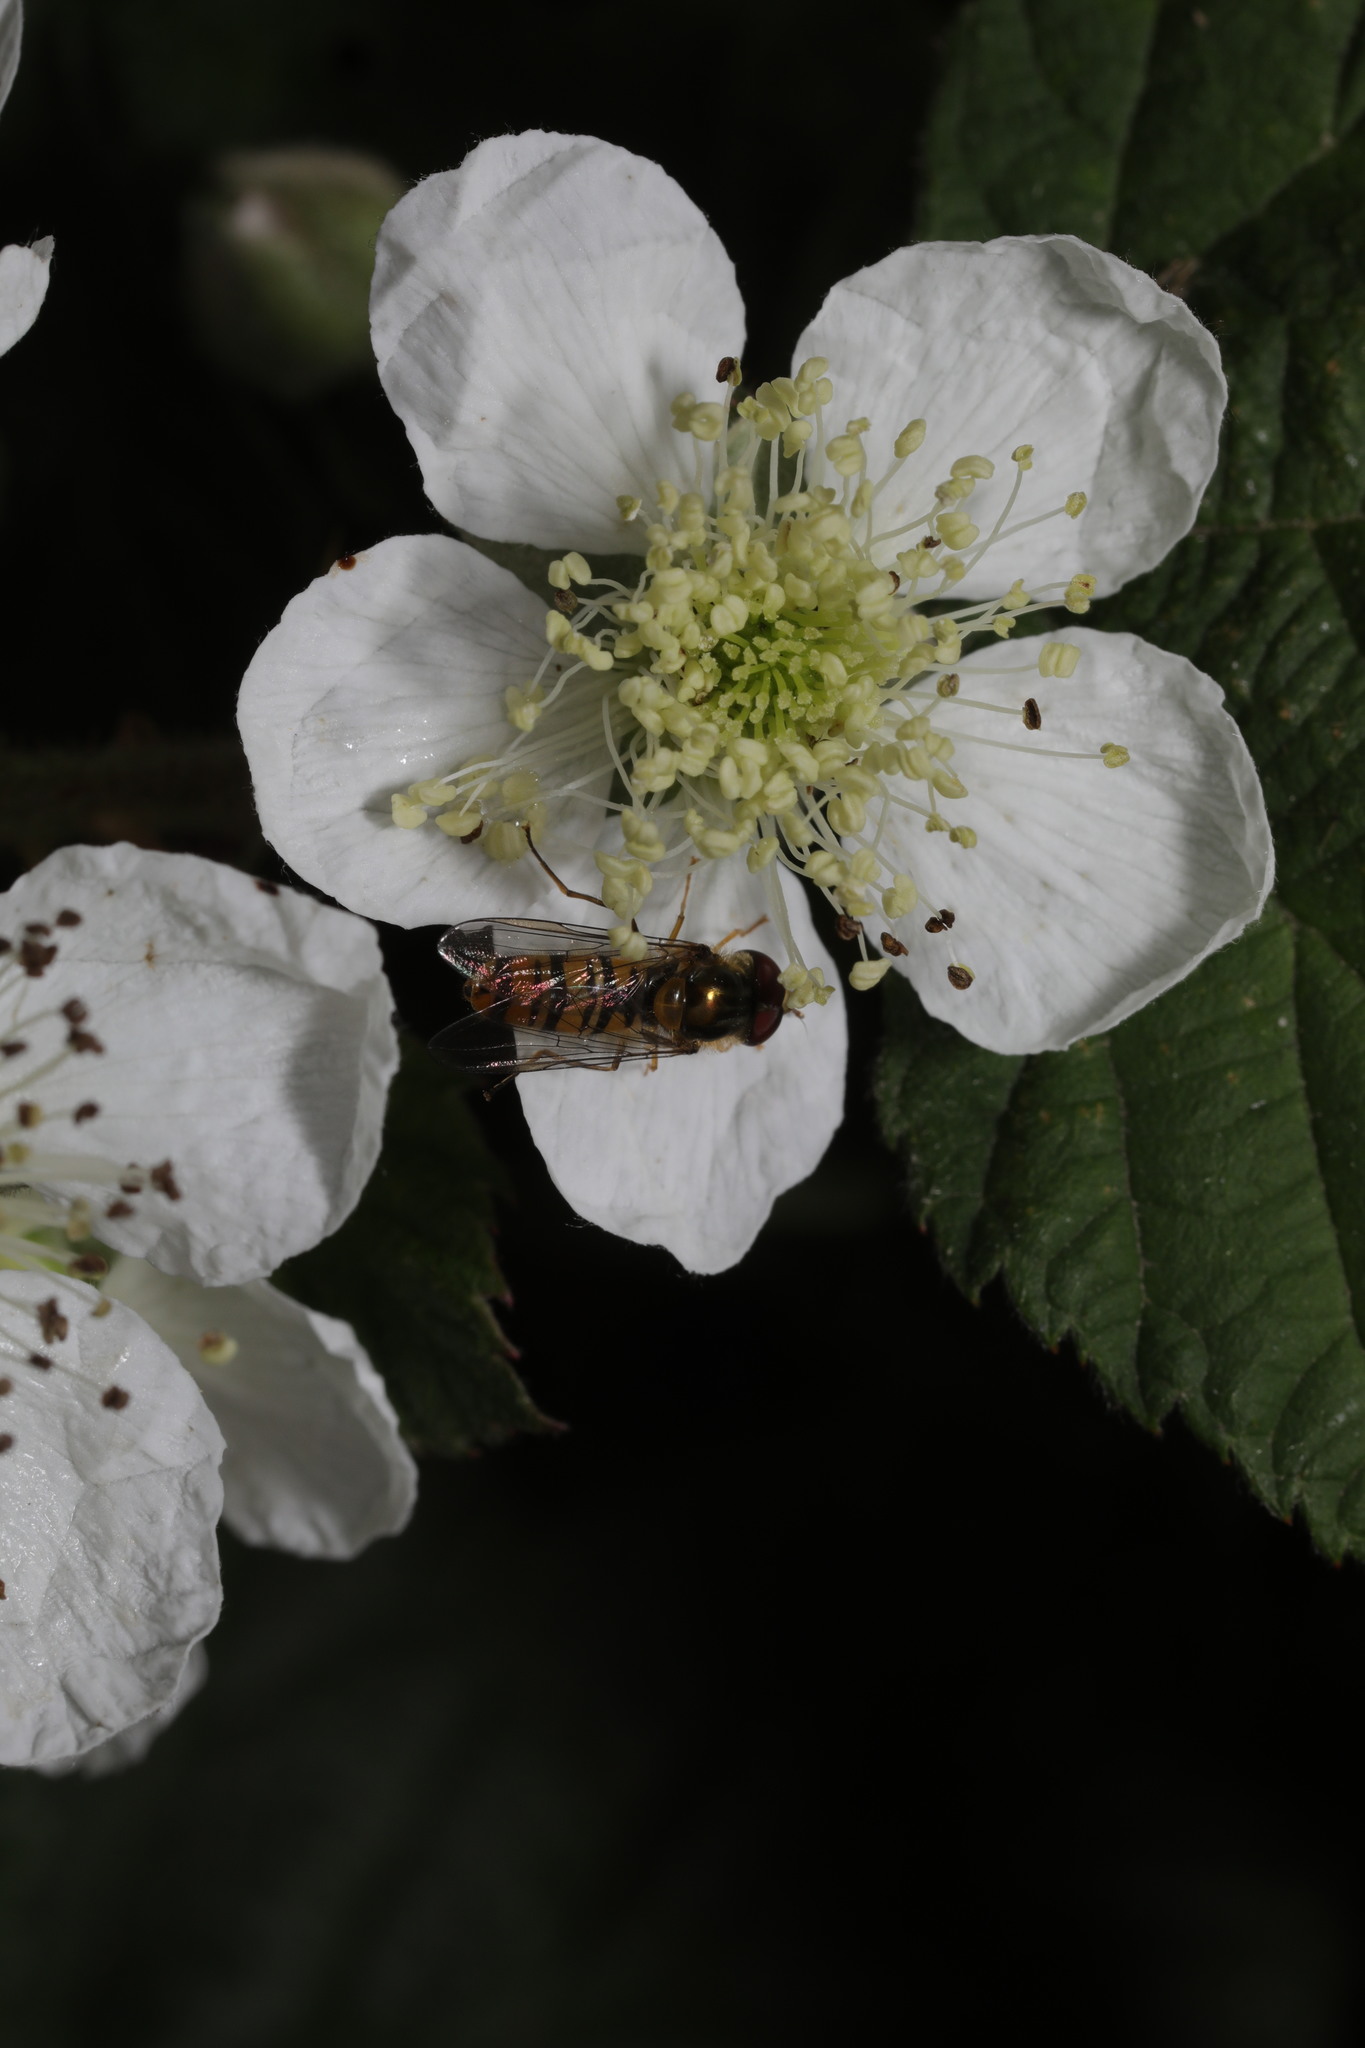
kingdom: Animalia
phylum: Arthropoda
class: Insecta
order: Diptera
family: Syrphidae
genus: Episyrphus
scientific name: Episyrphus balteatus
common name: Marmalade hoverfly
